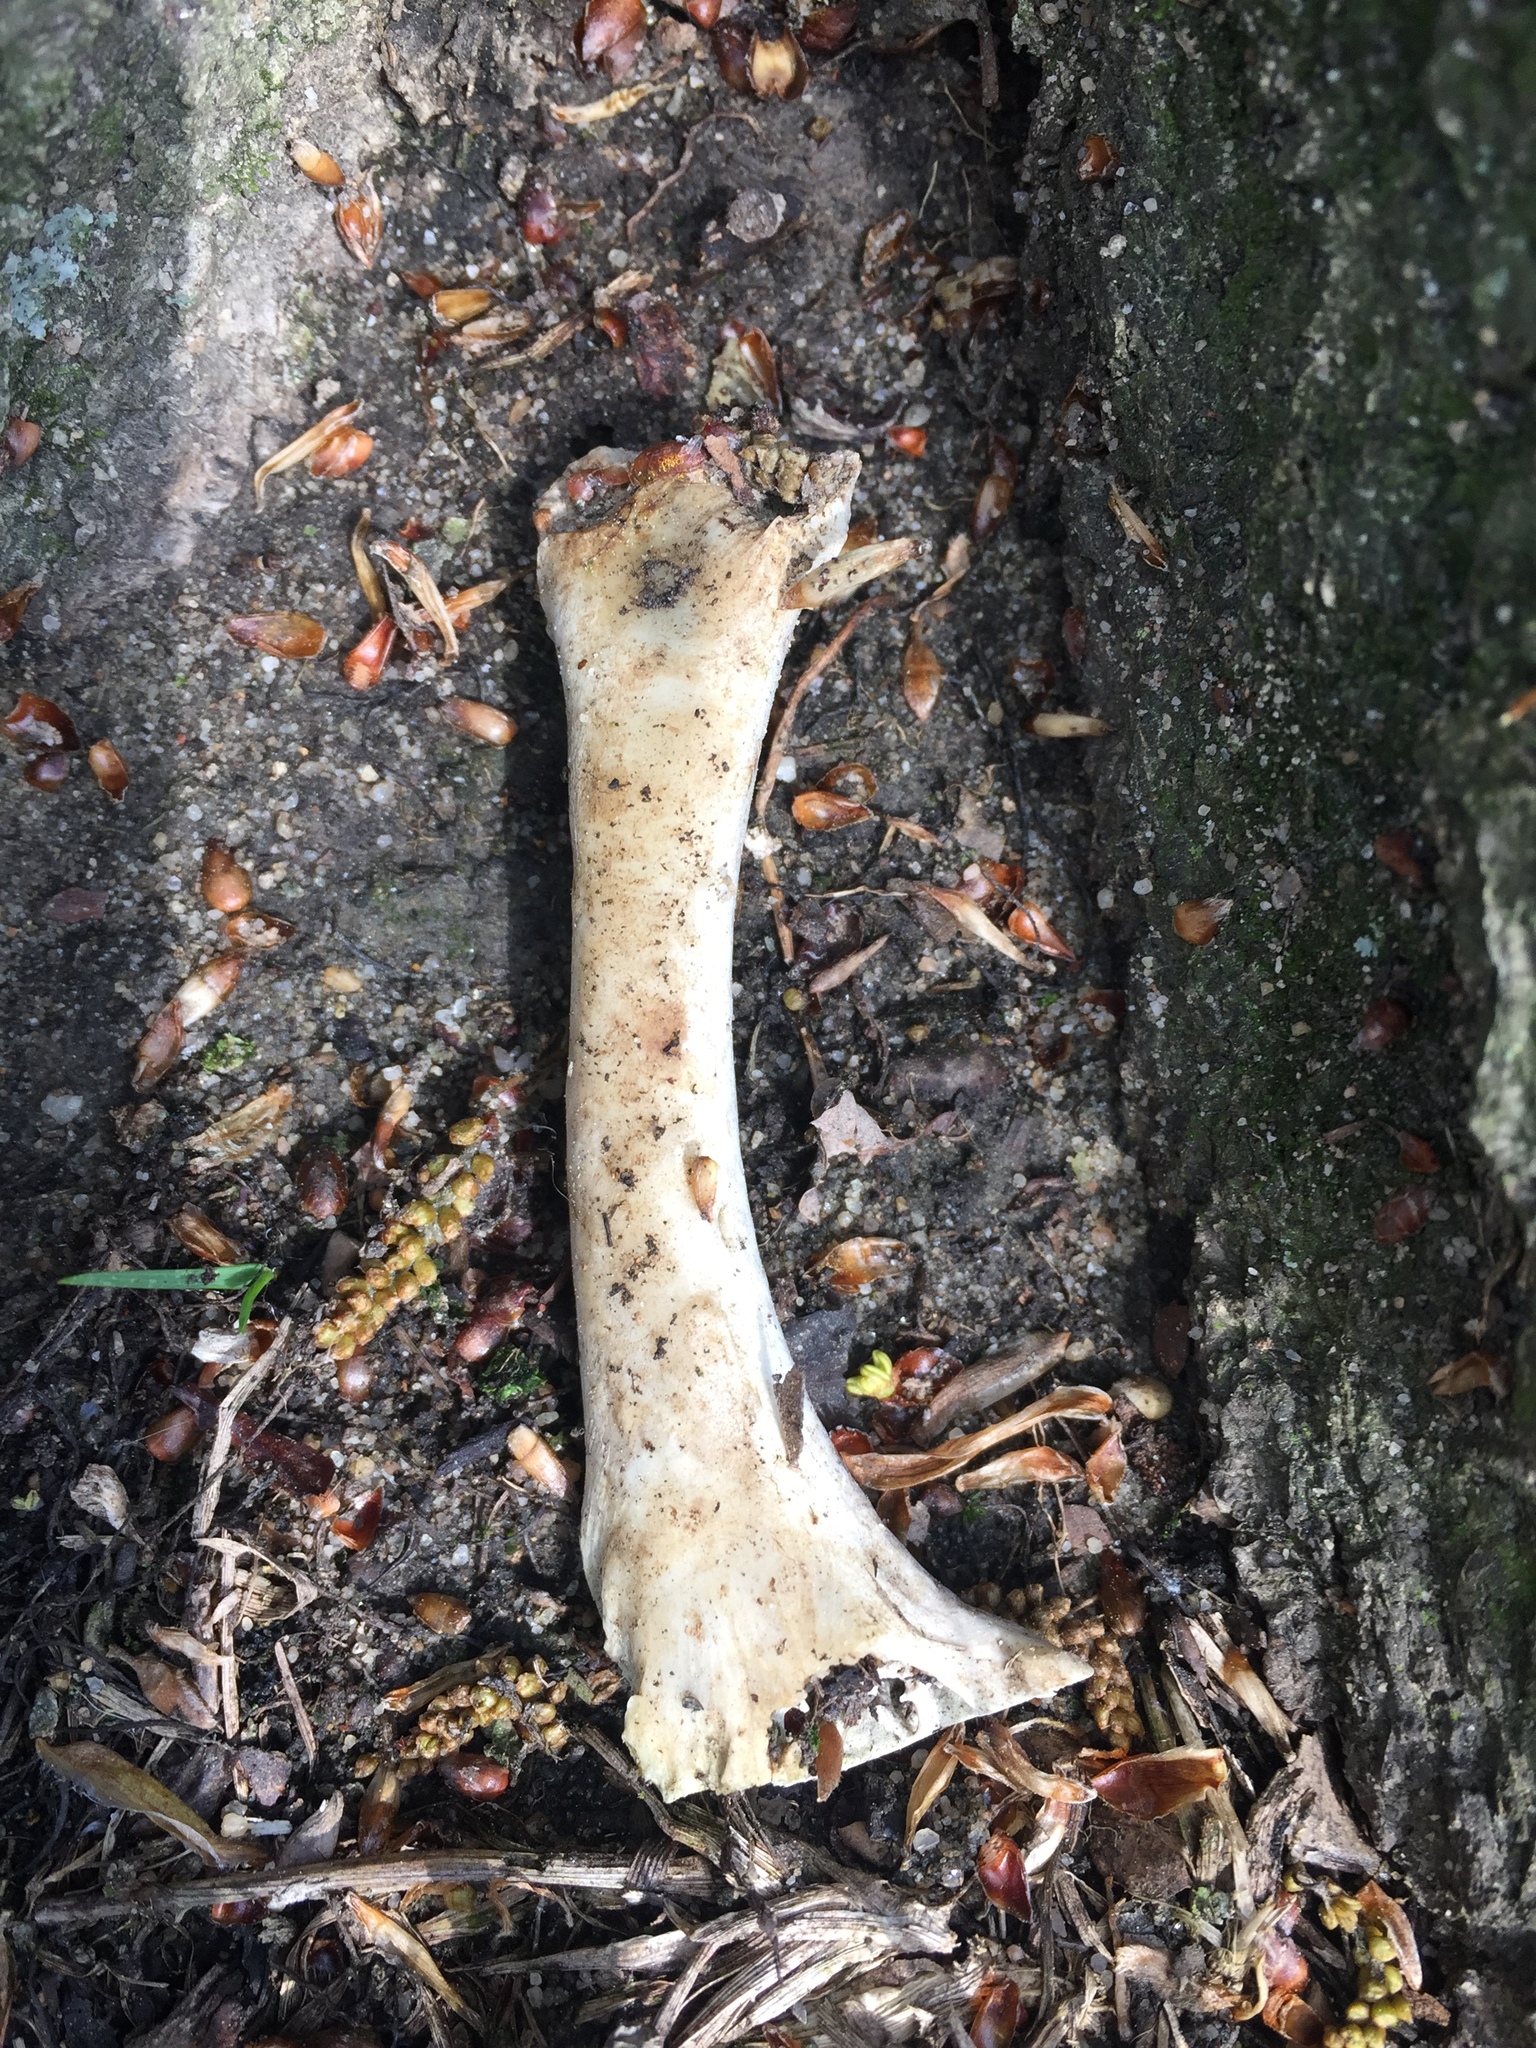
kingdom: Animalia
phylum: Chordata
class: Mammalia
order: Artiodactyla
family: Cervidae
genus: Odocoileus
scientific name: Odocoileus virginianus
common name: White-tailed deer
